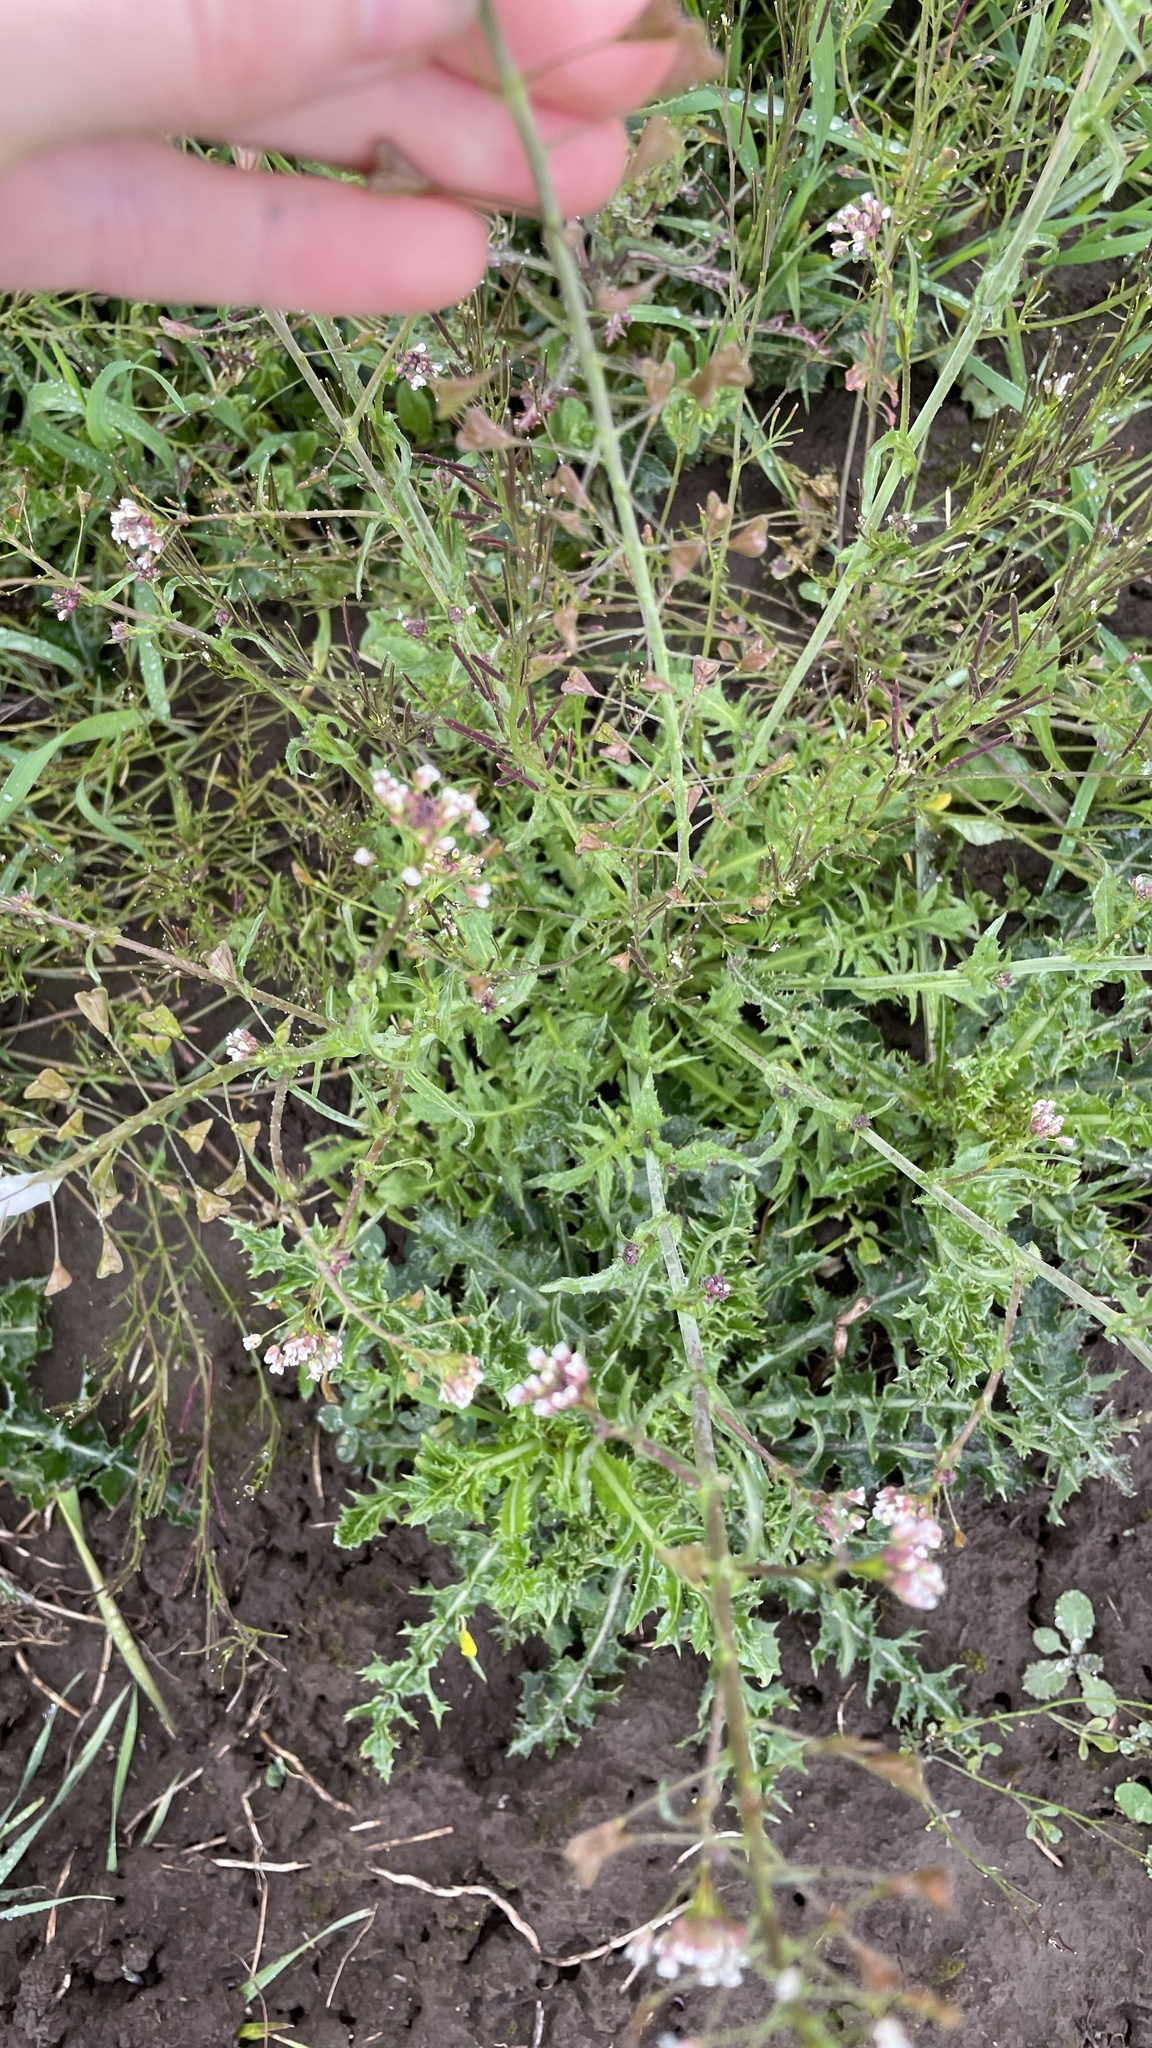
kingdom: Plantae
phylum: Tracheophyta
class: Magnoliopsida
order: Brassicales
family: Brassicaceae
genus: Capsella
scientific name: Capsella bursa-pastoris
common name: Shepherd's purse
